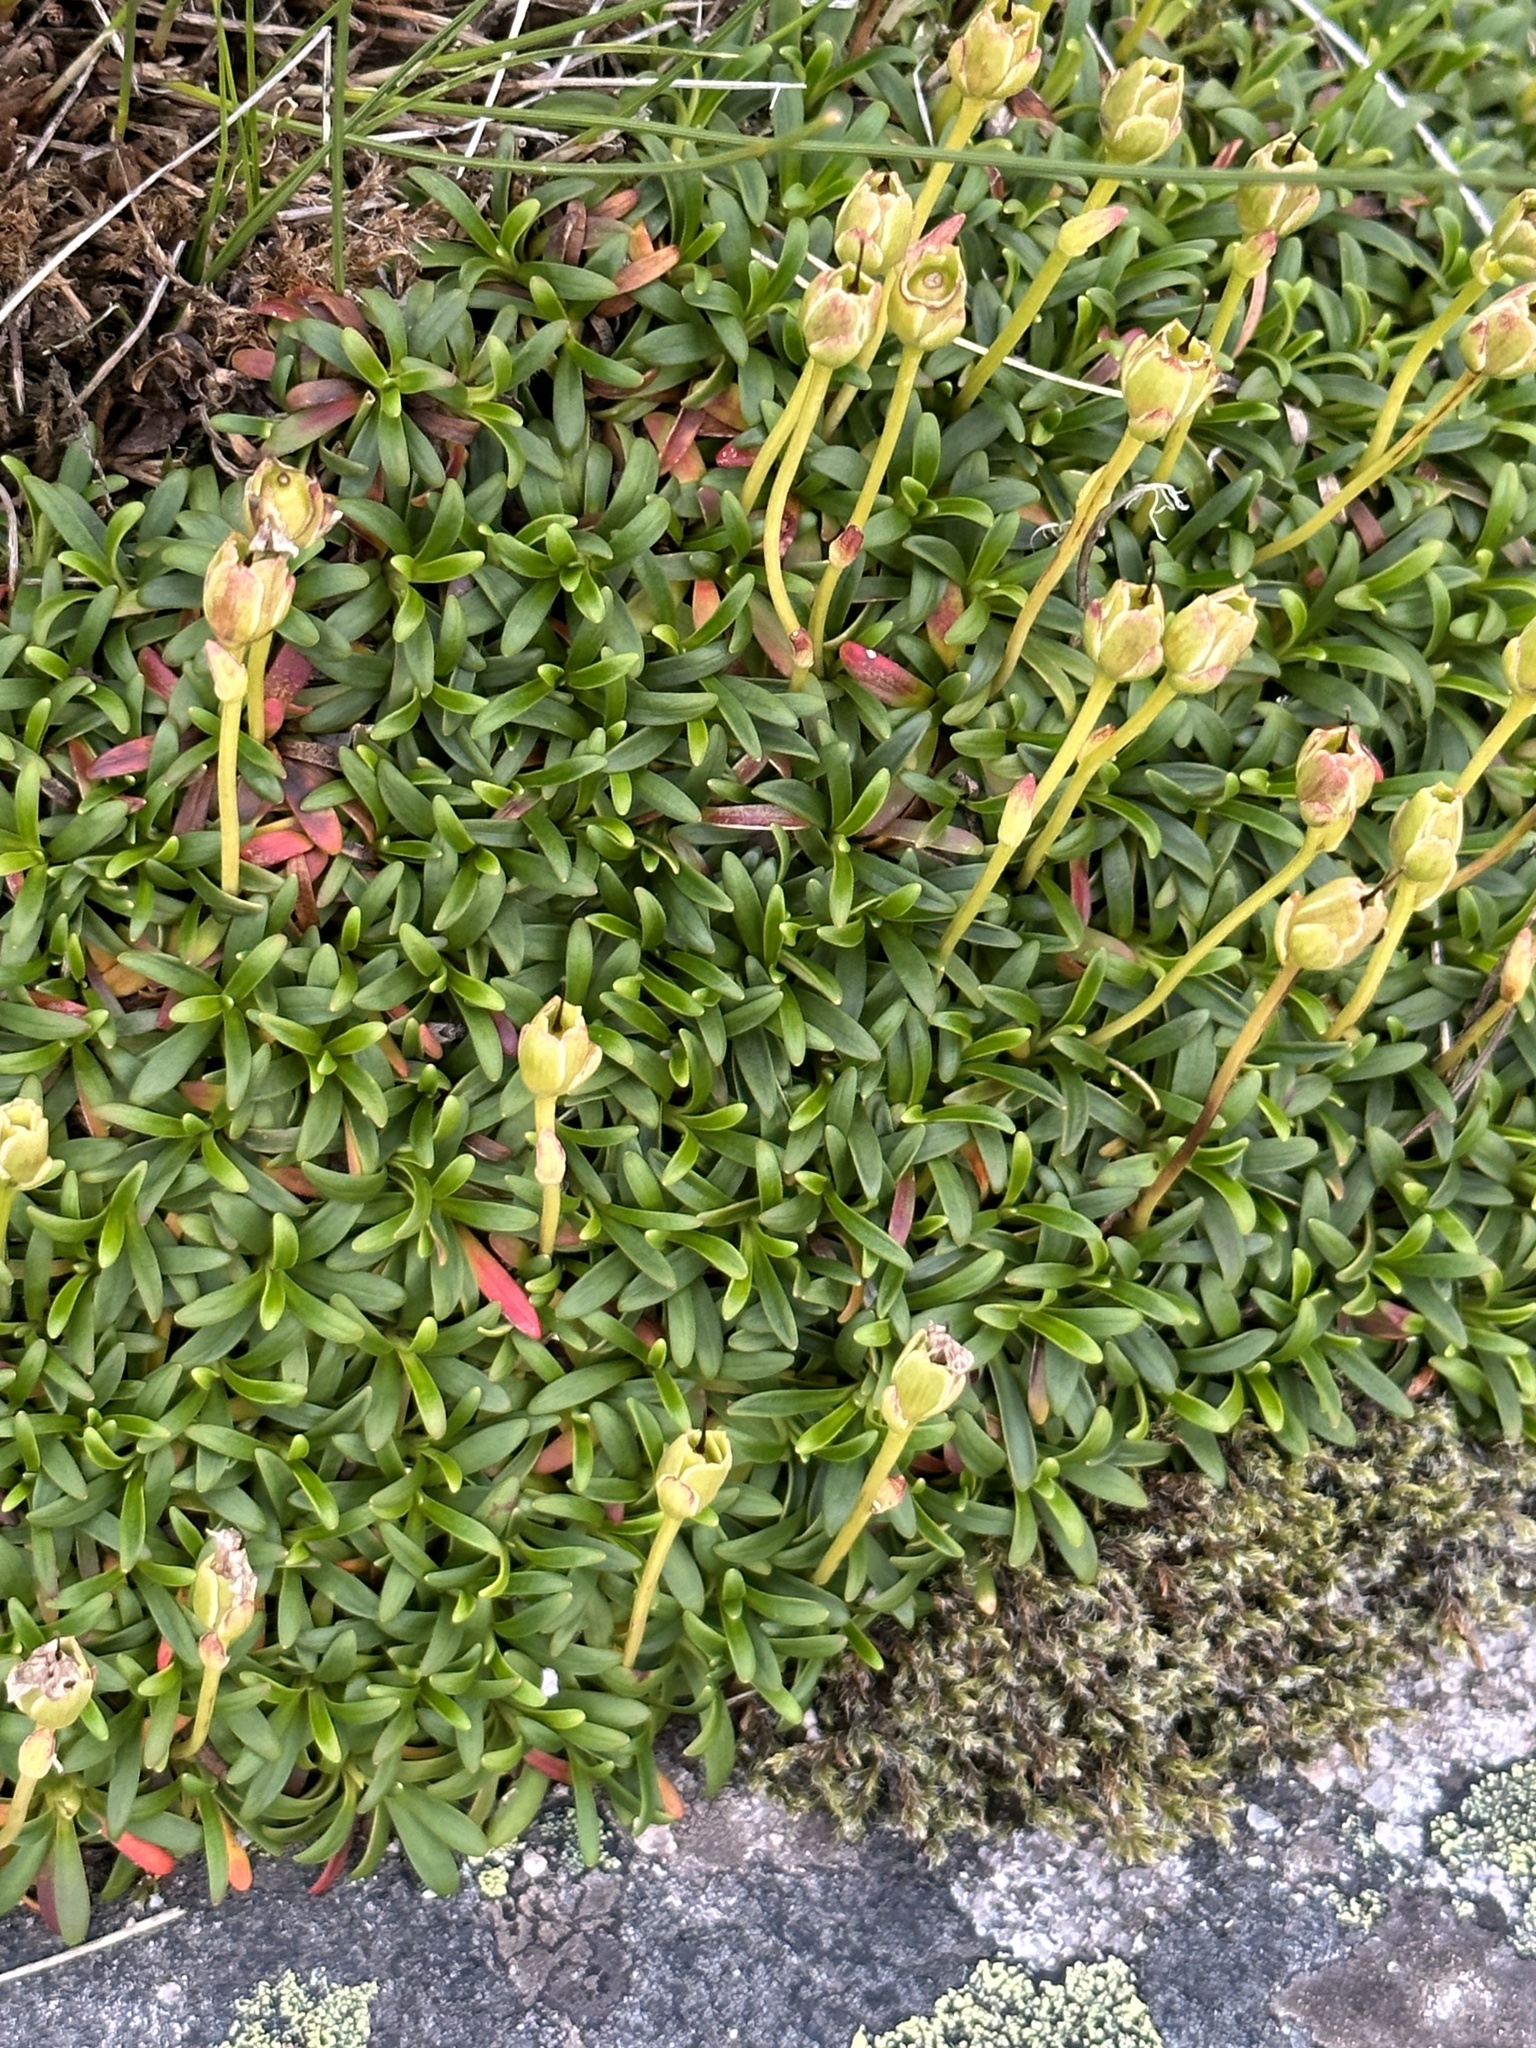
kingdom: Plantae
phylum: Tracheophyta
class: Magnoliopsida
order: Ericales
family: Diapensiaceae
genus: Diapensia
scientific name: Diapensia lapponica
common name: Diapensia
